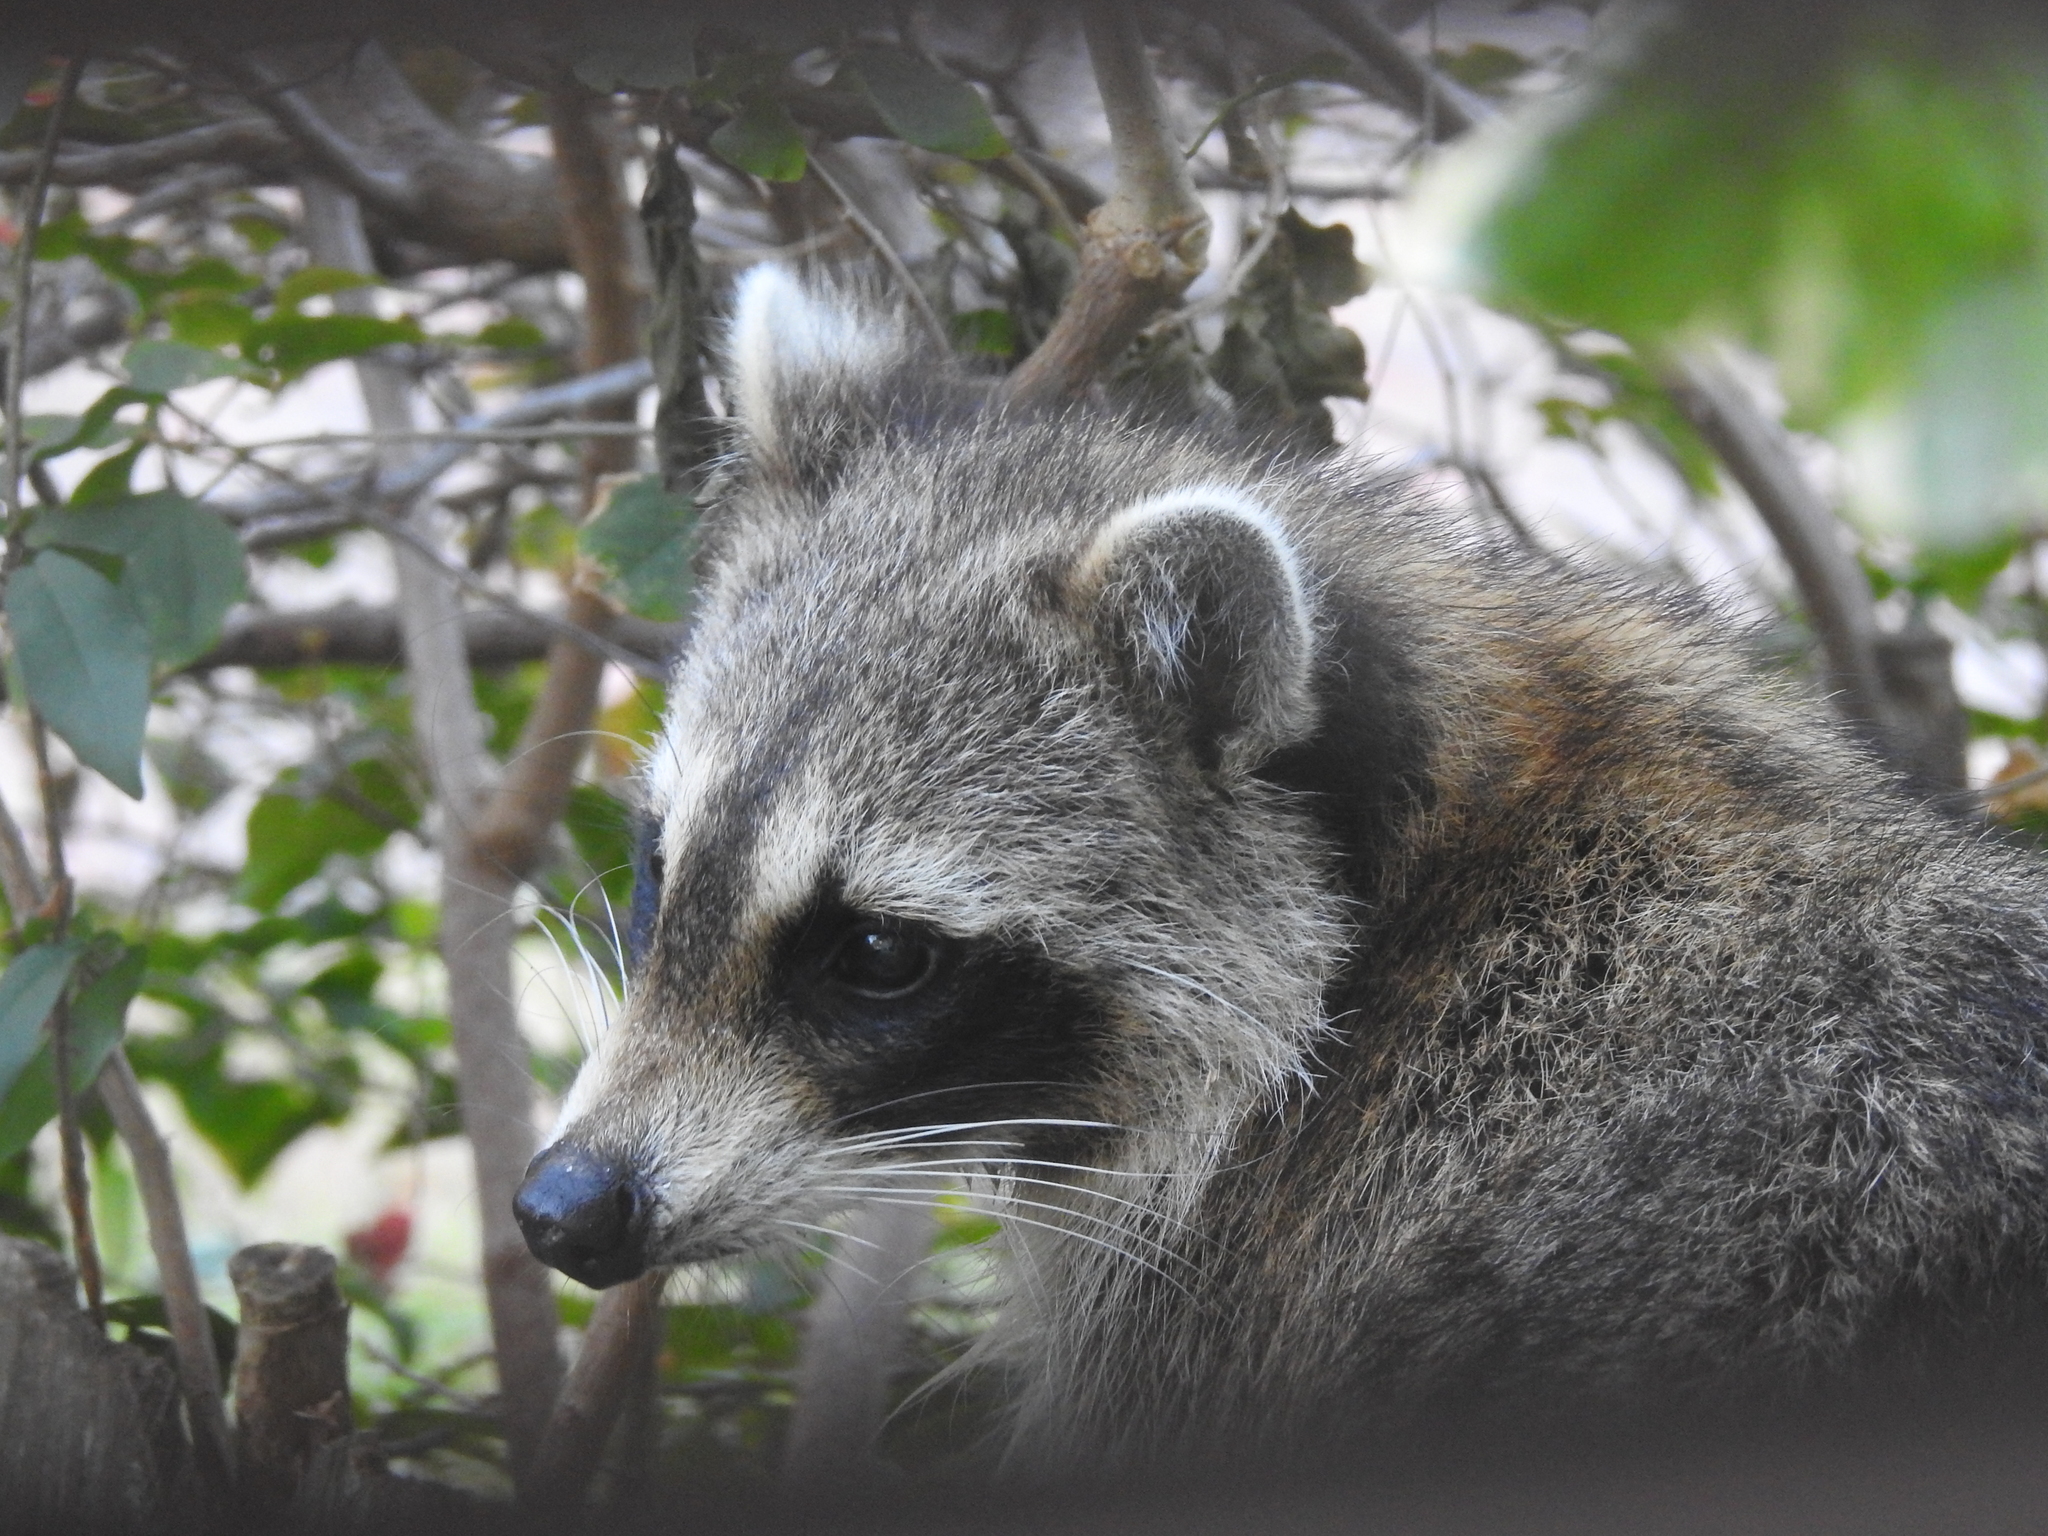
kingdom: Animalia
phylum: Chordata
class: Mammalia
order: Carnivora
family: Procyonidae
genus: Procyon
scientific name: Procyon lotor
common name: Raccoon
